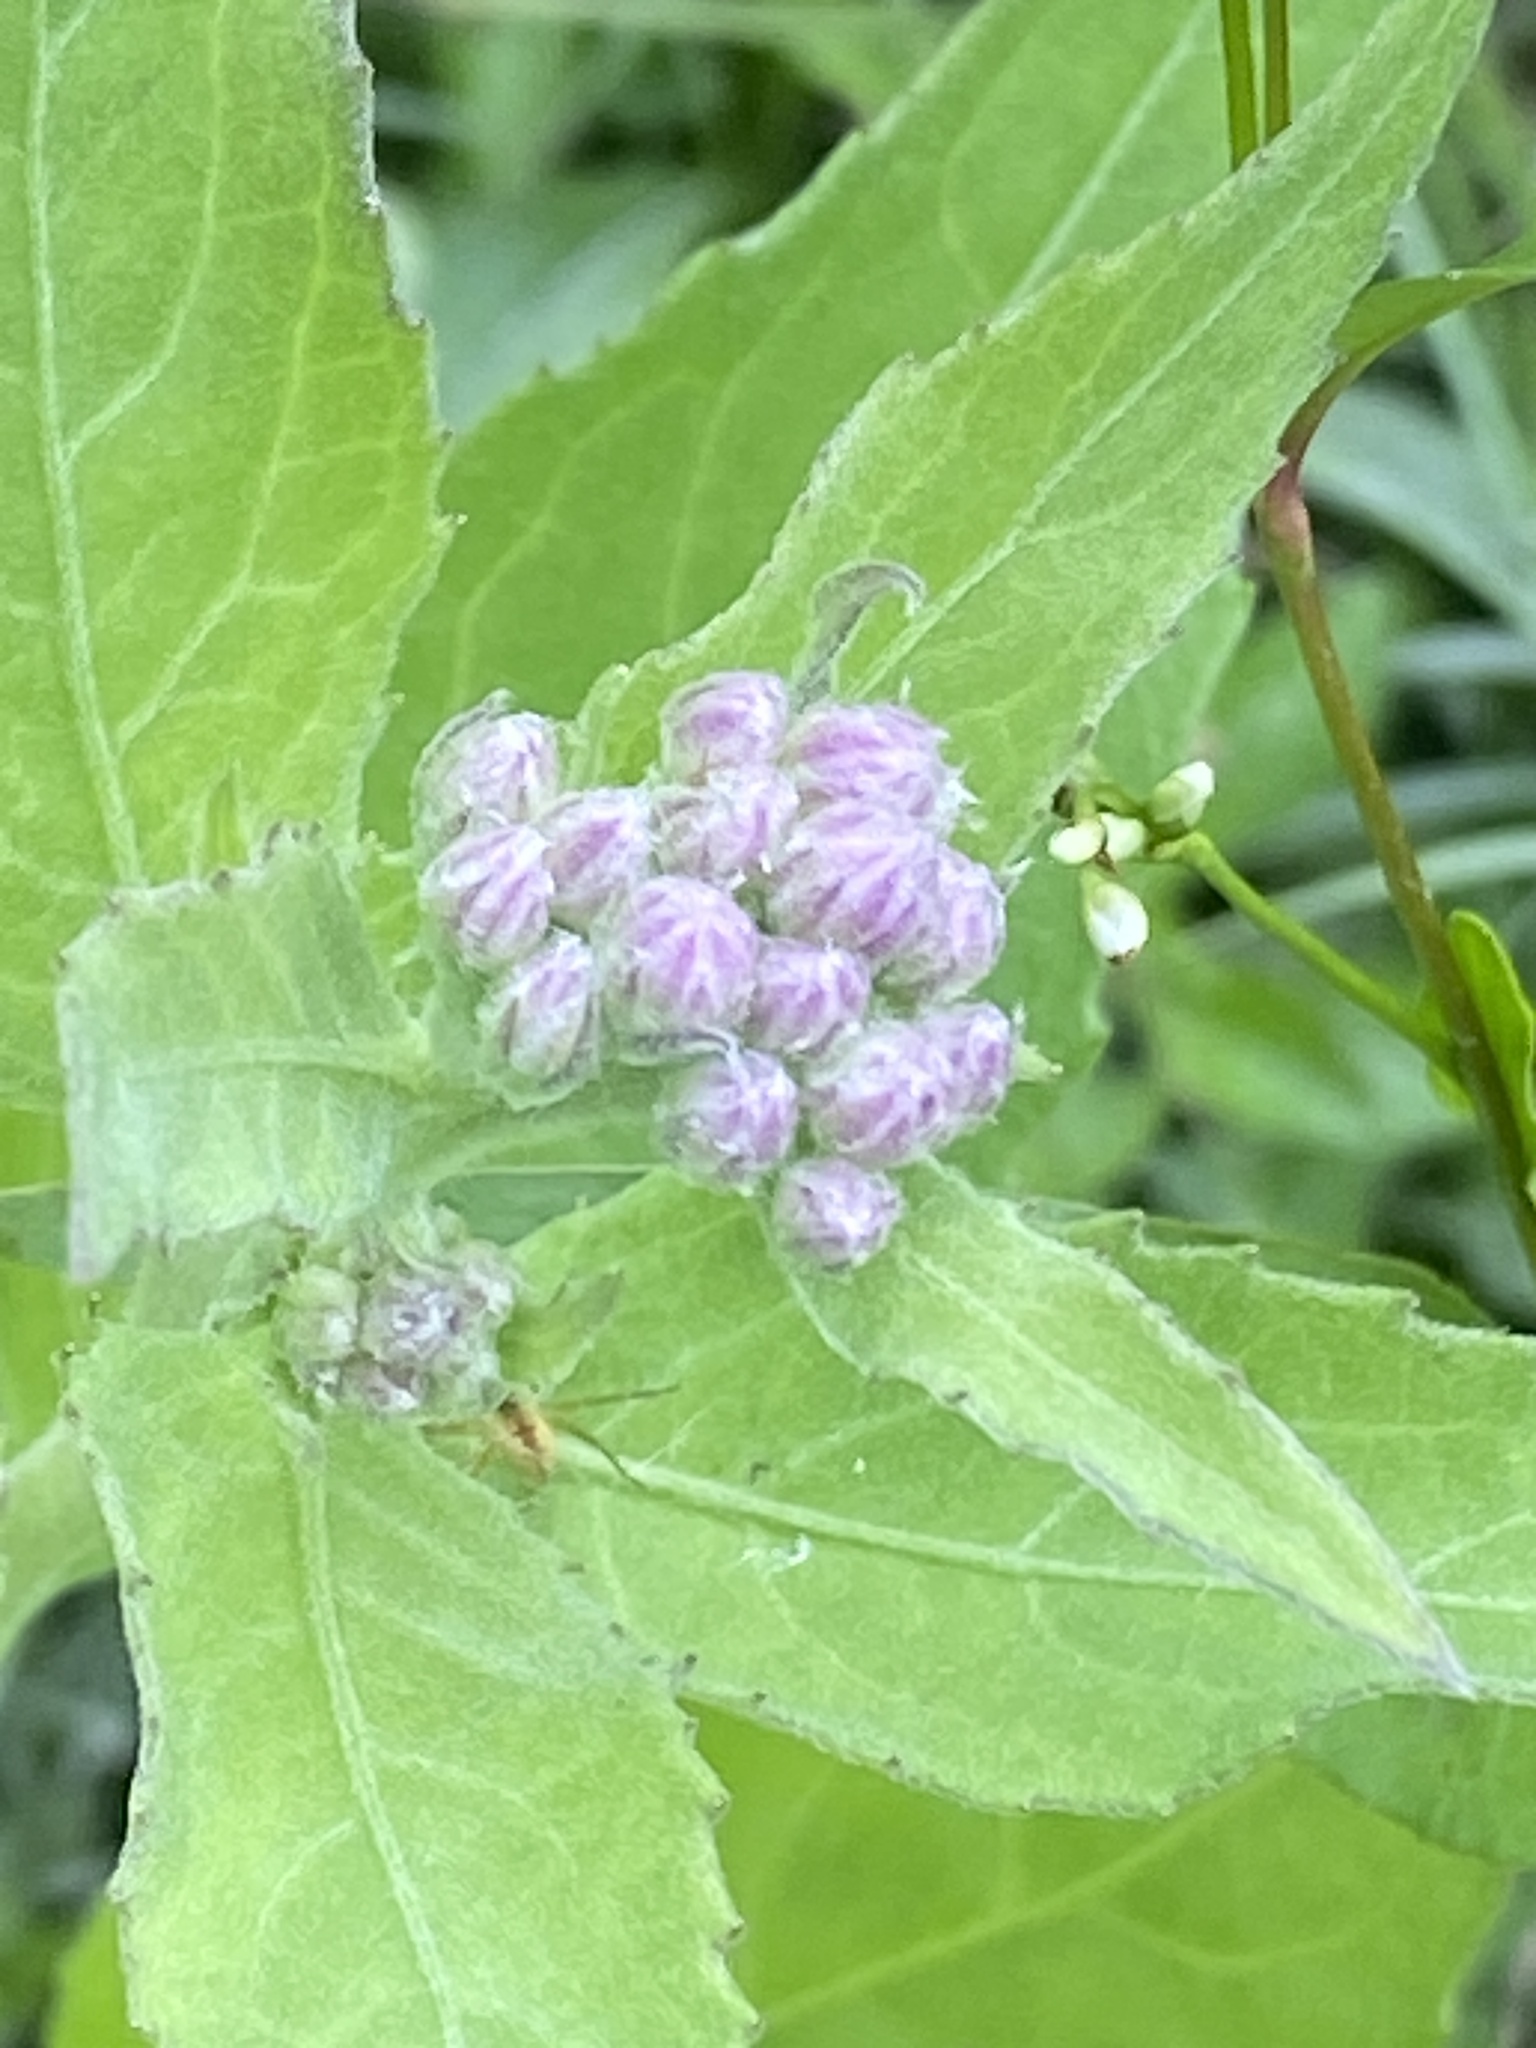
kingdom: Plantae
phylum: Tracheophyta
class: Magnoliopsida
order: Asterales
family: Asteraceae
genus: Pluchea
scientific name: Pluchea odorata
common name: Saltmarsh fleabane
